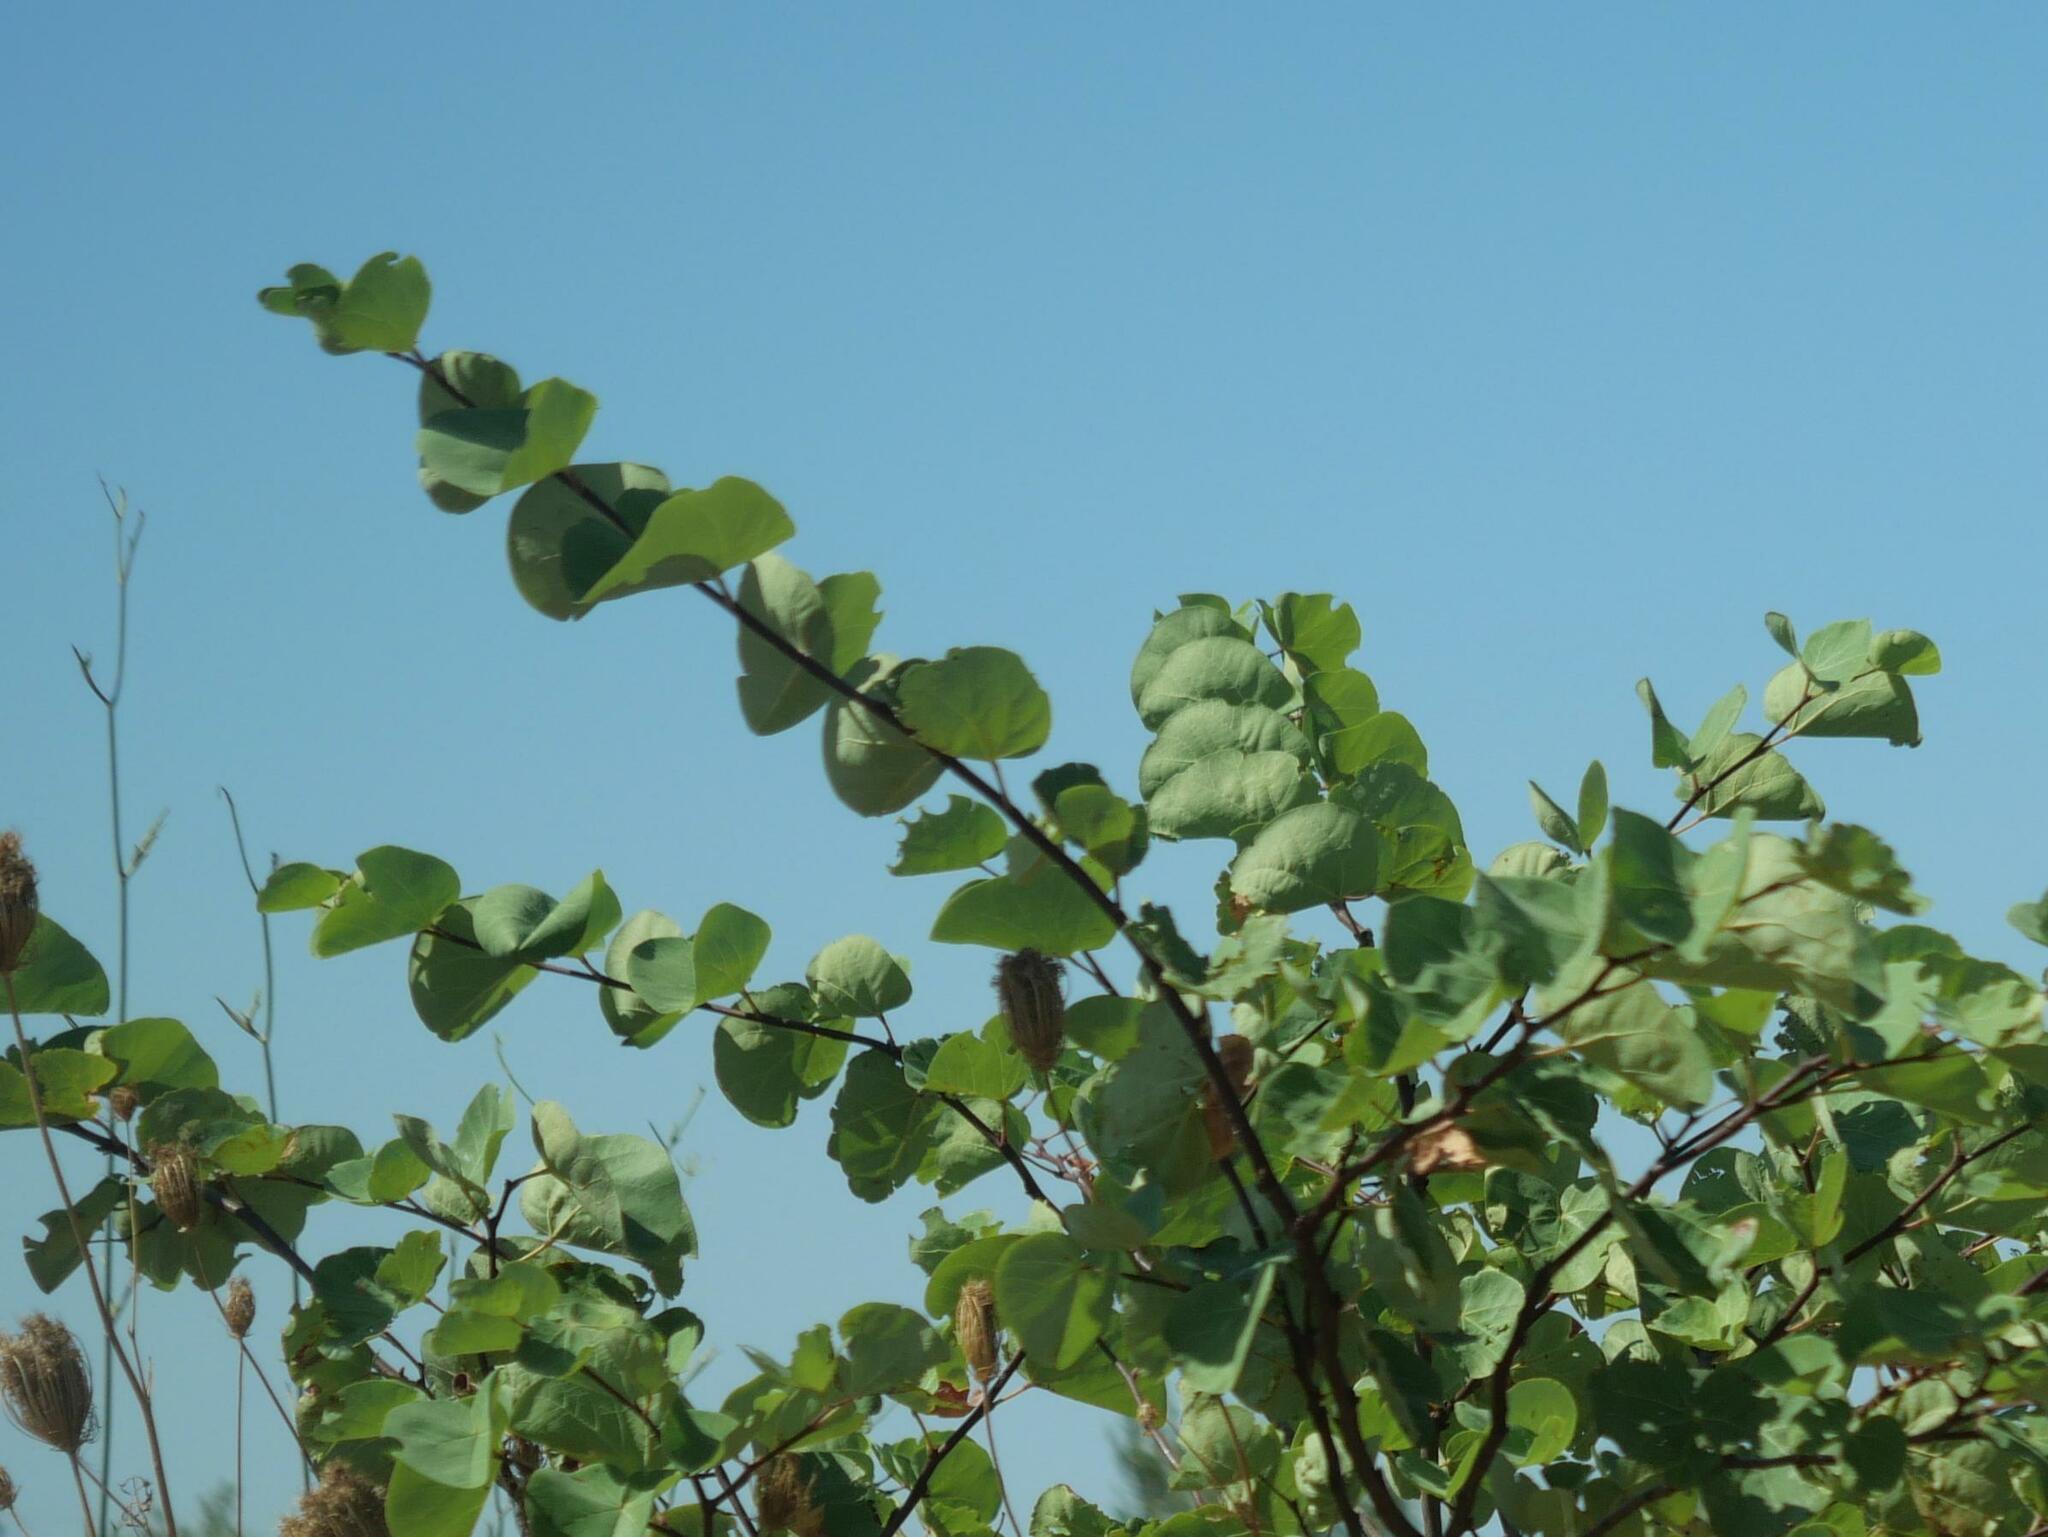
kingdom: Plantae
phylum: Tracheophyta
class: Magnoliopsida
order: Fabales
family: Fabaceae
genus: Cercis
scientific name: Cercis siliquastrum
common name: Judas tree
